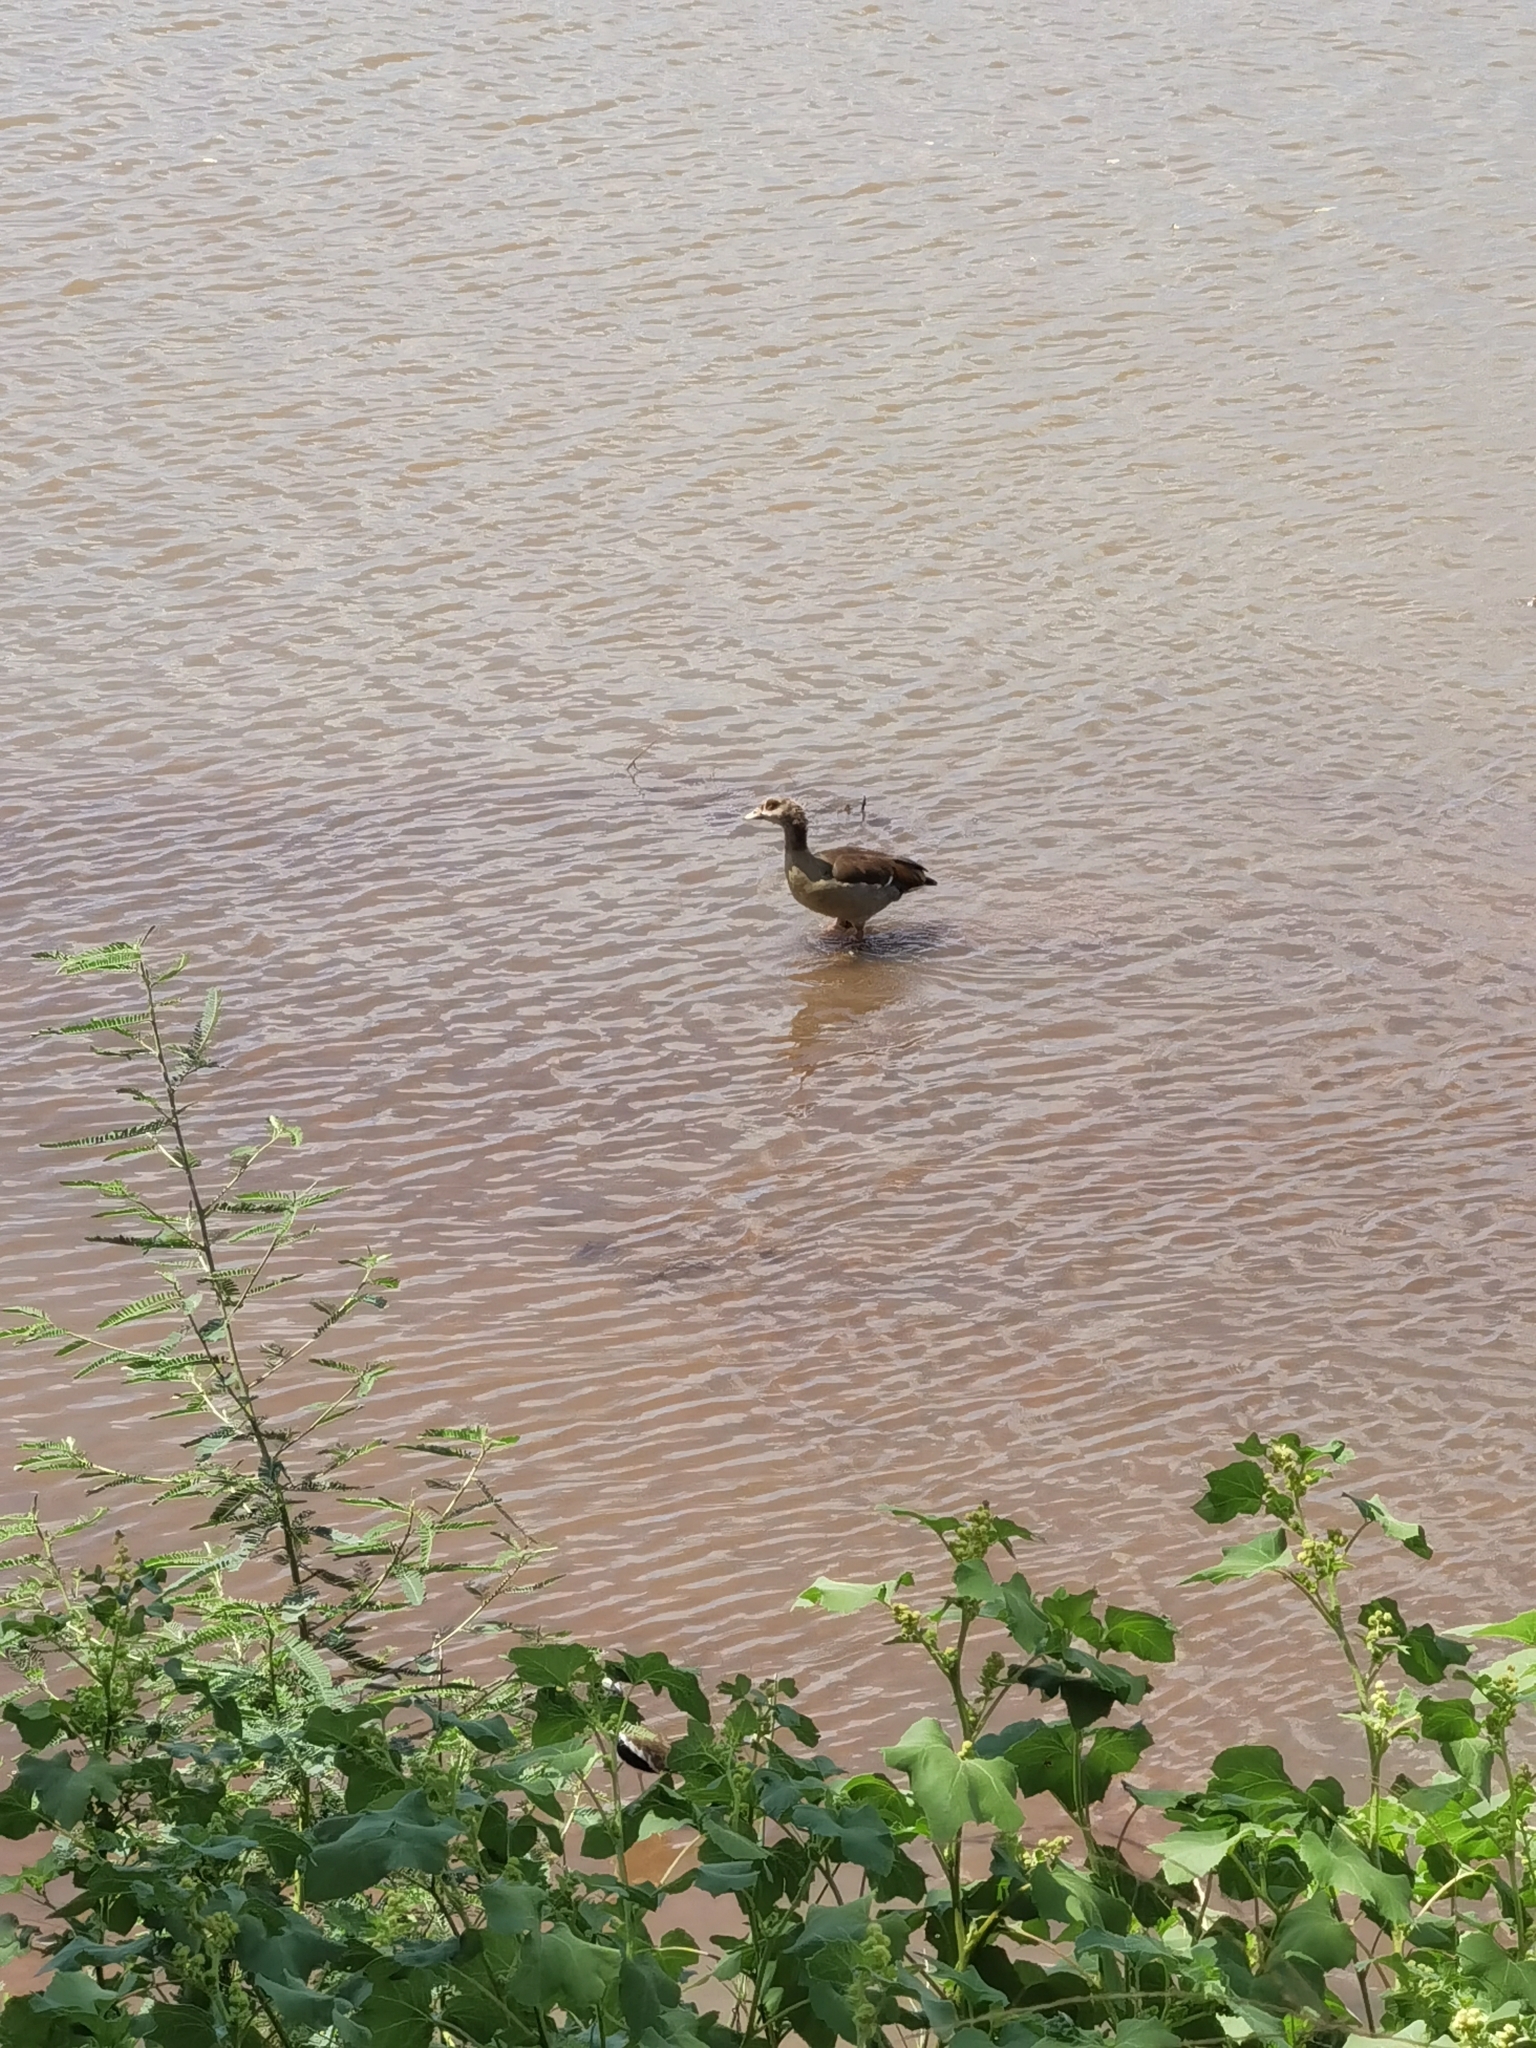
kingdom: Animalia
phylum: Chordata
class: Aves
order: Anseriformes
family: Anatidae
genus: Alopochen
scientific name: Alopochen aegyptiaca
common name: Egyptian goose
